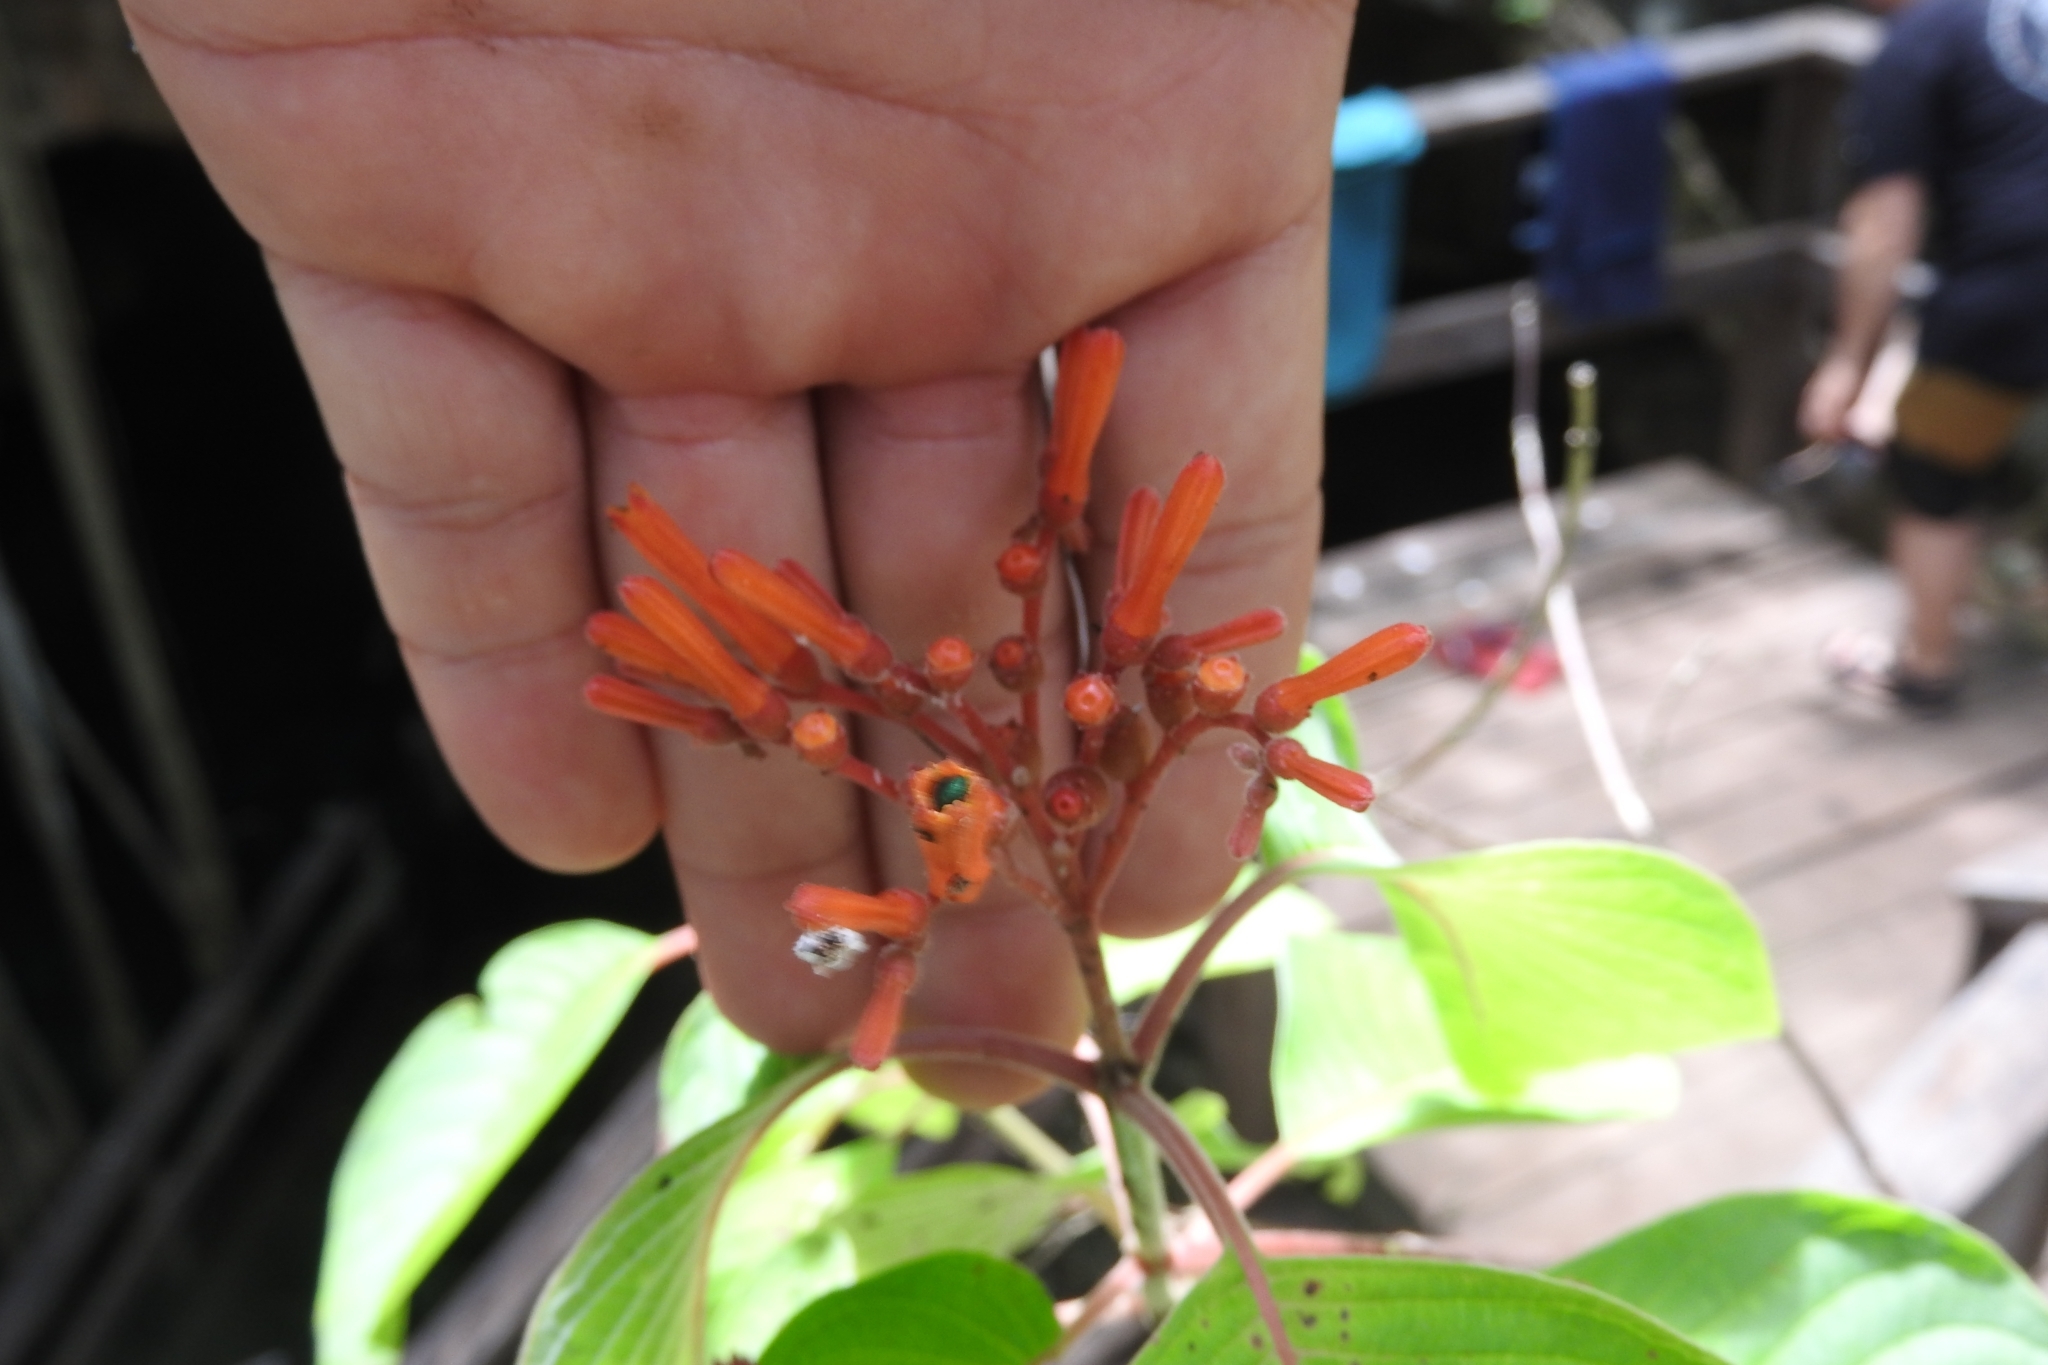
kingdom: Plantae
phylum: Tracheophyta
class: Magnoliopsida
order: Gentianales
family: Rubiaceae
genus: Hamelia
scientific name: Hamelia patens
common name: Redhead
